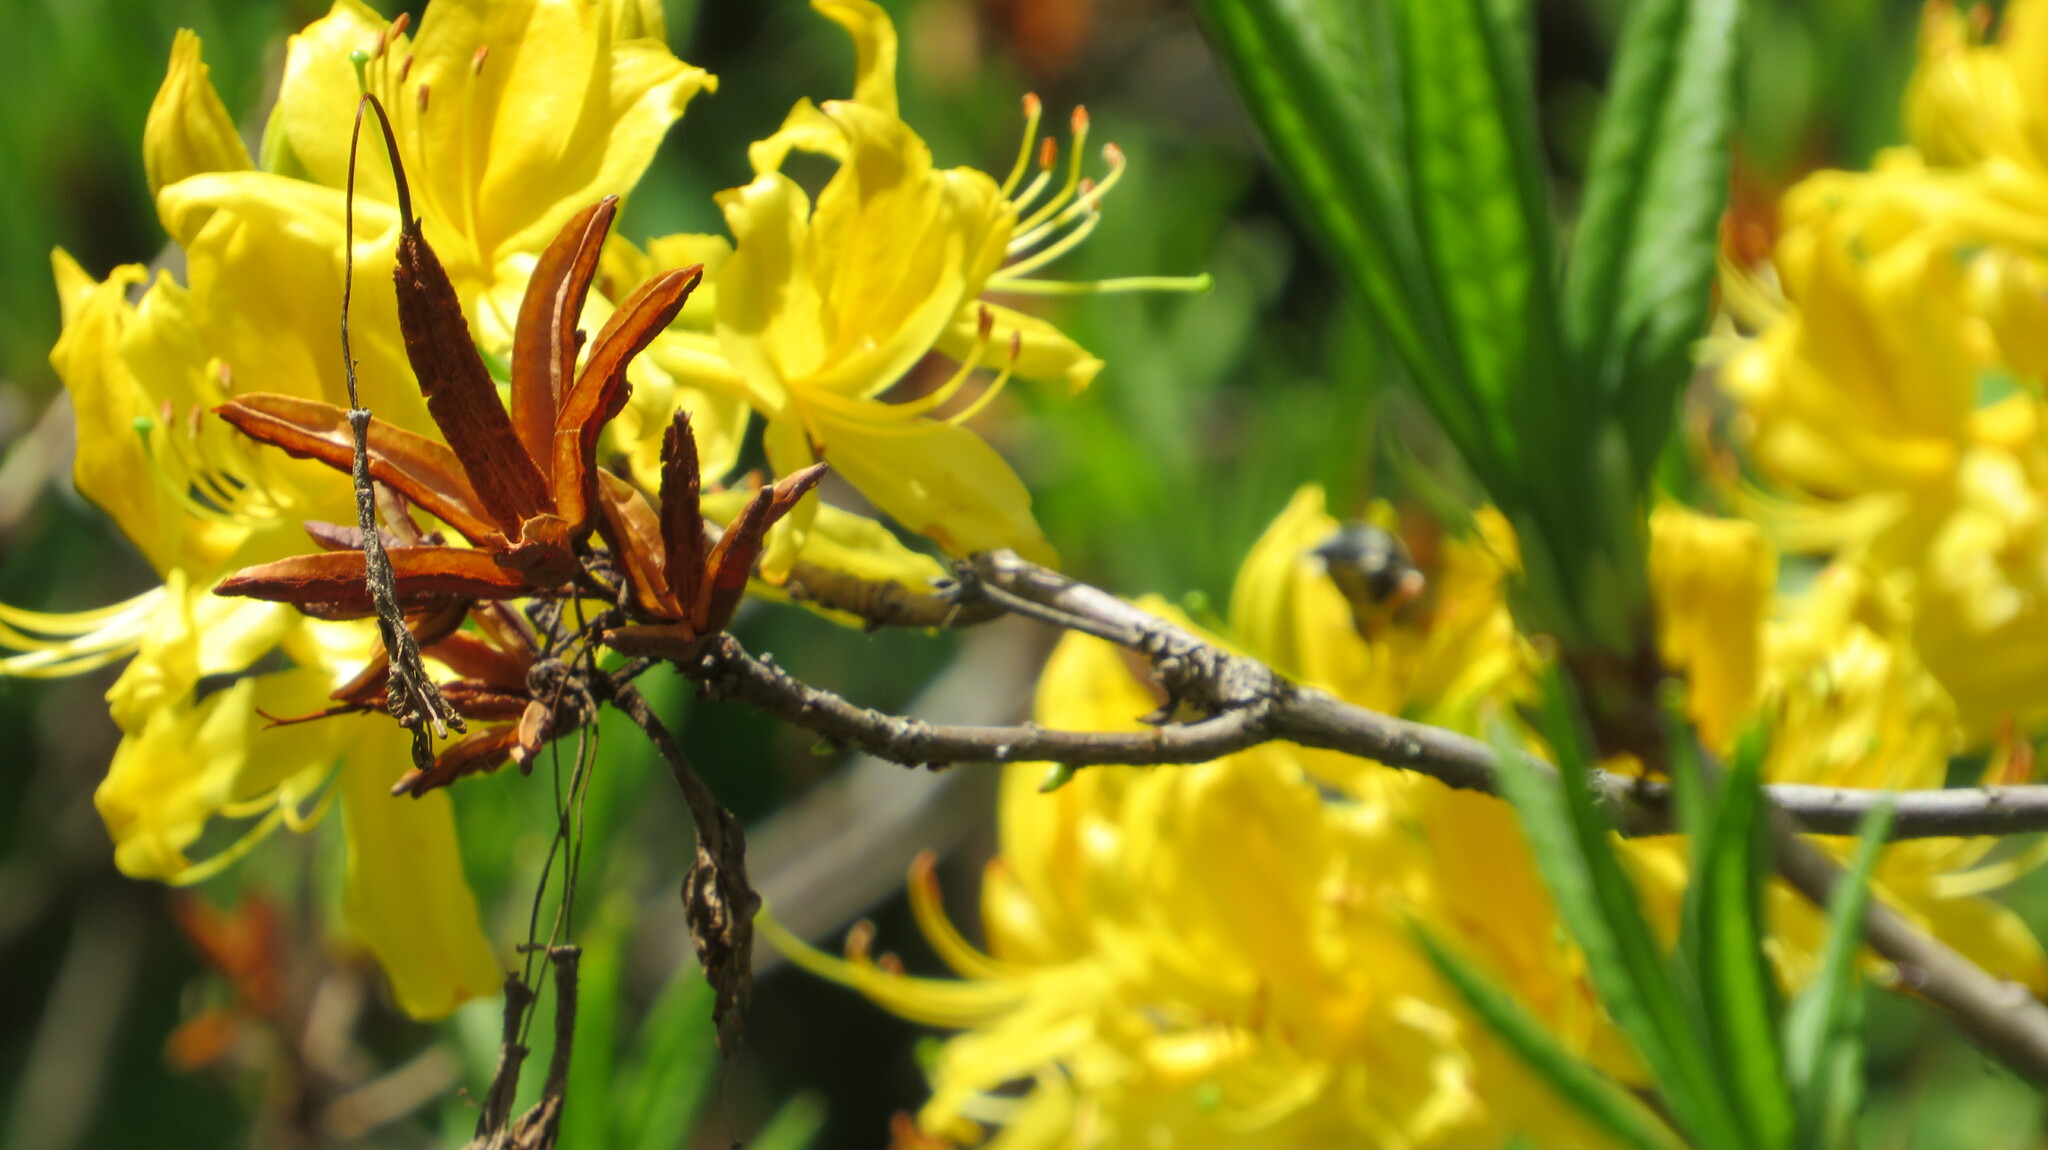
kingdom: Plantae
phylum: Tracheophyta
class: Magnoliopsida
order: Ericales
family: Ericaceae
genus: Rhododendron
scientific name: Rhododendron luteum
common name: Yellow azalea
